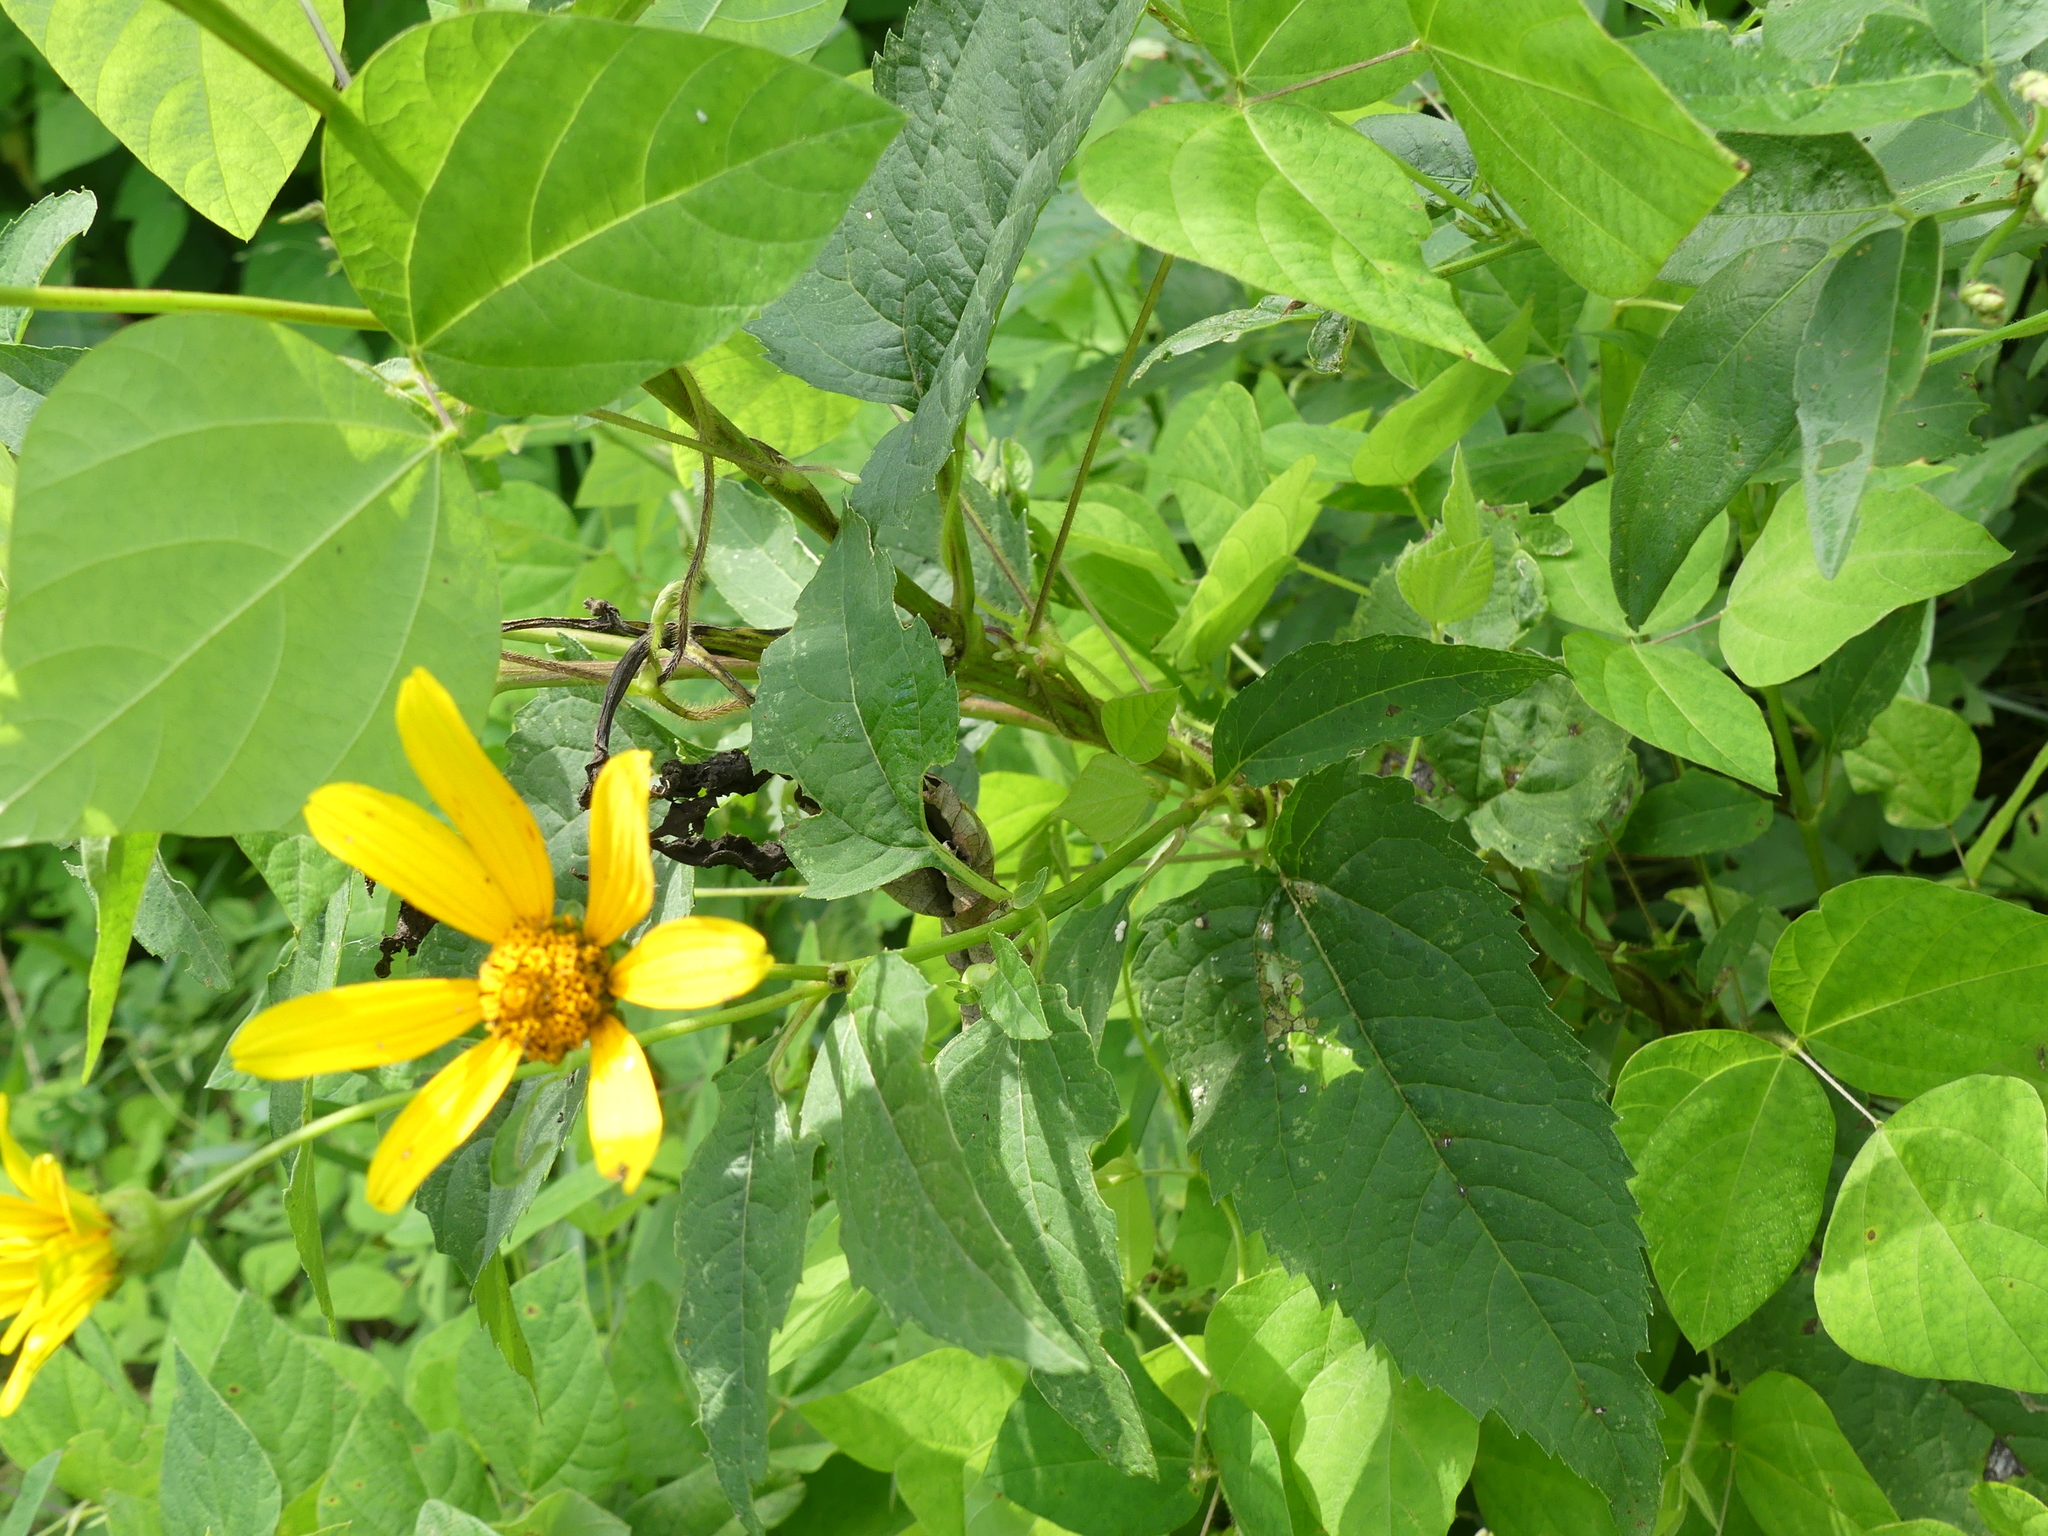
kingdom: Plantae
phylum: Tracheophyta
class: Magnoliopsida
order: Asterales
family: Asteraceae
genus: Heliopsis
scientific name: Heliopsis helianthoides
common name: False sunflower
